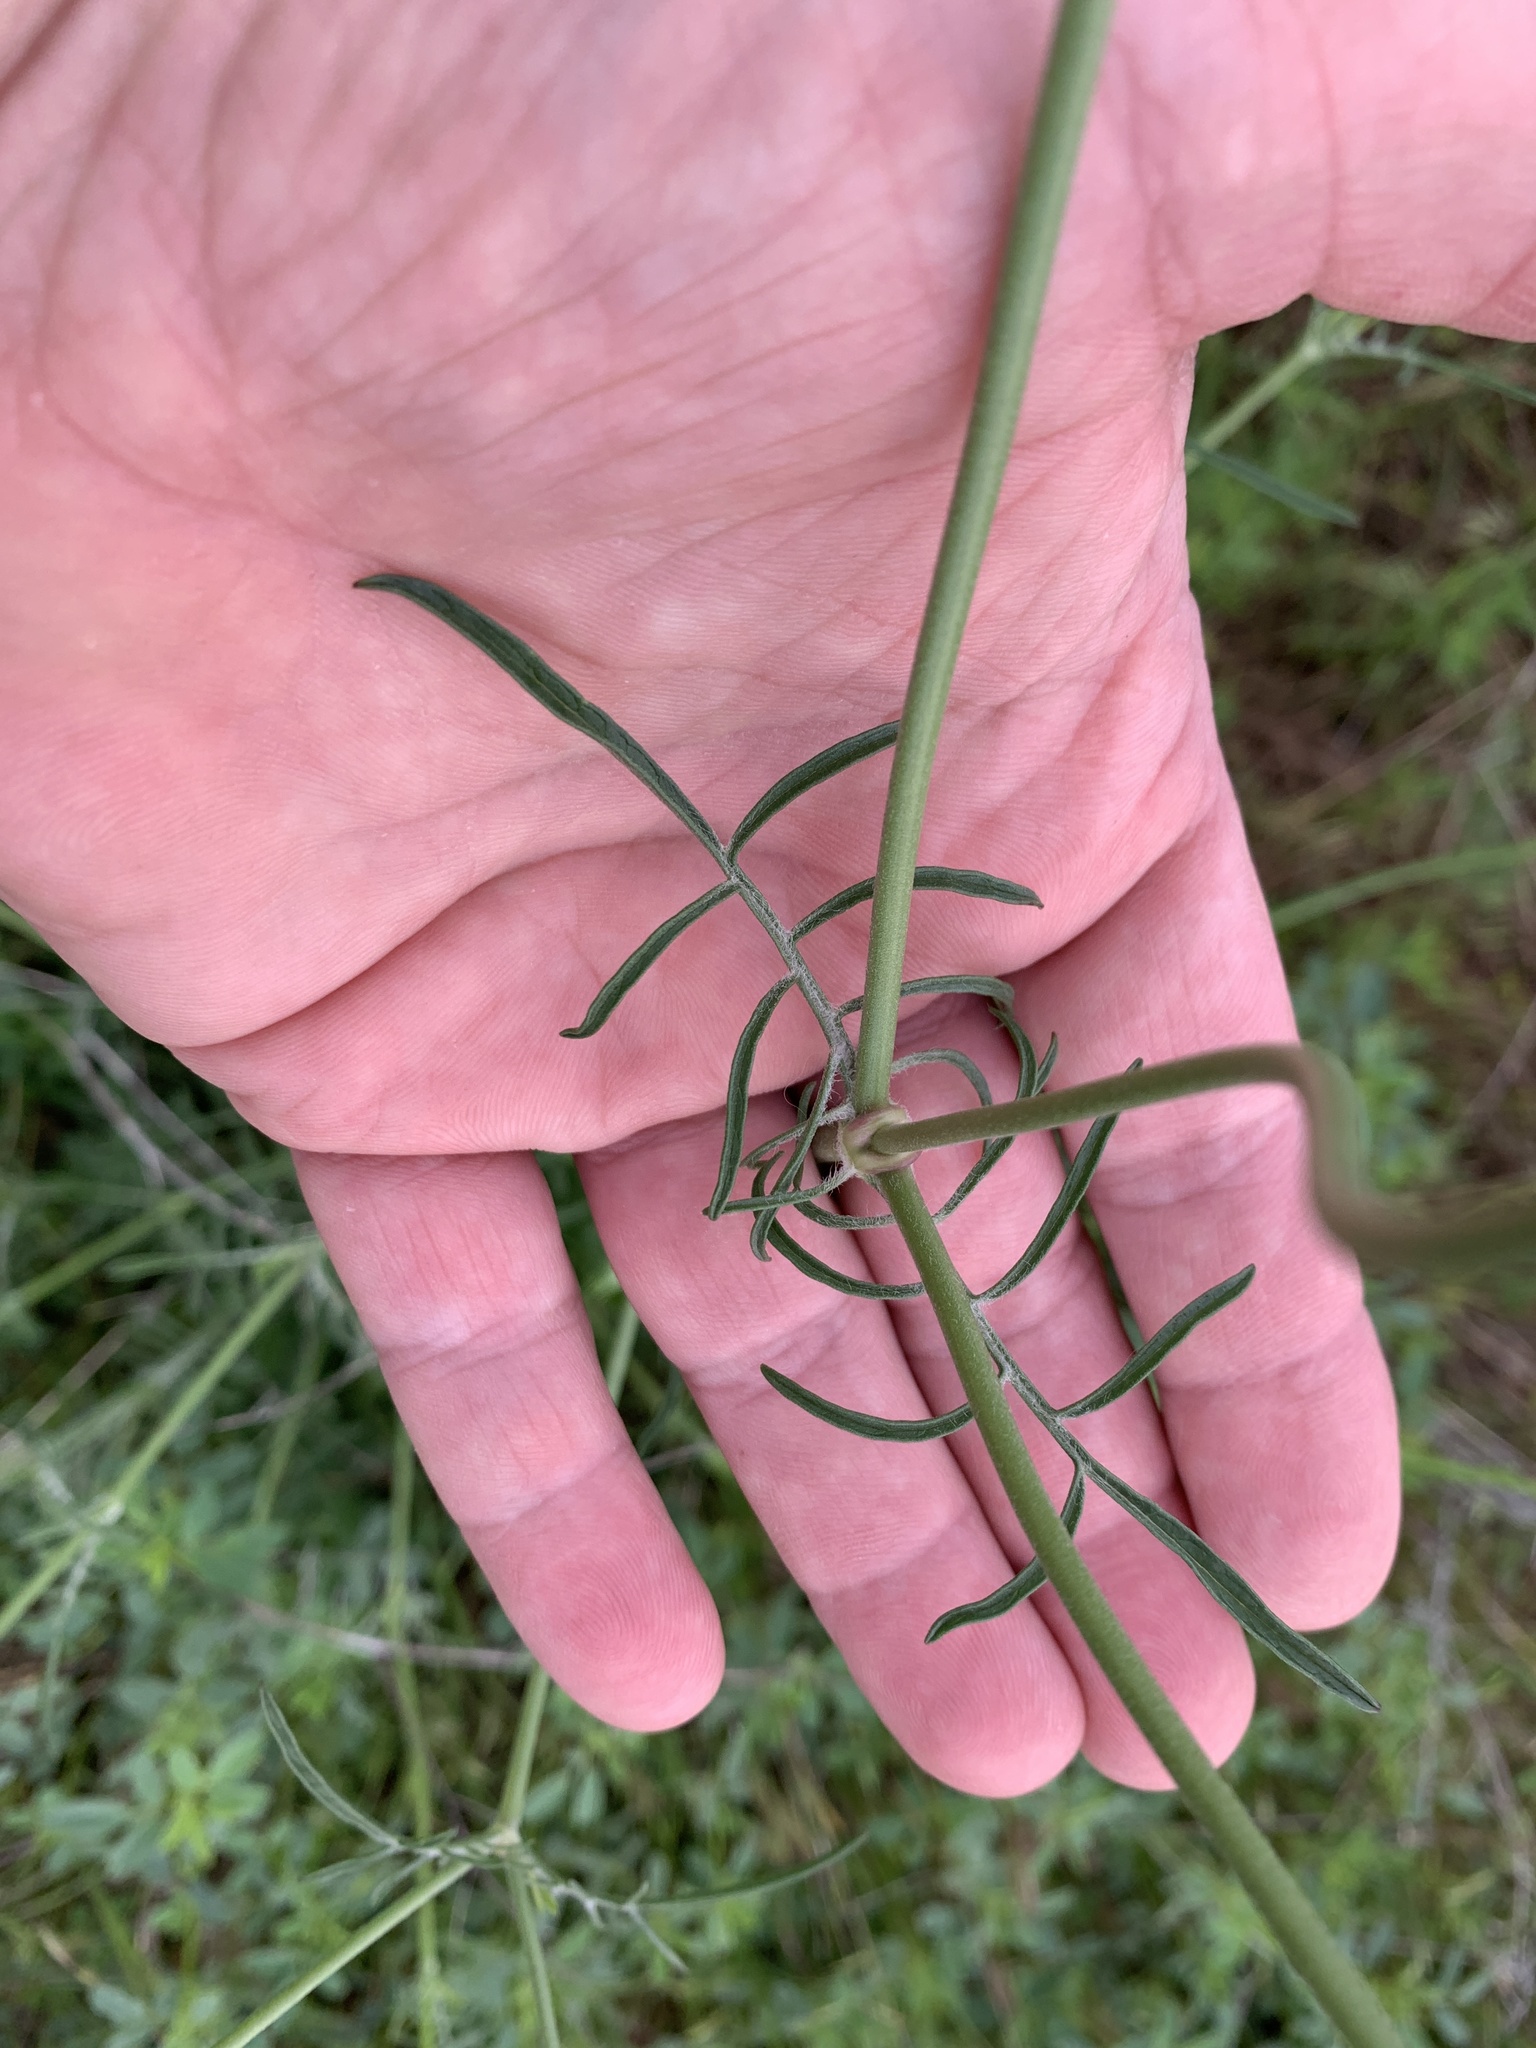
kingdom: Plantae
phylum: Tracheophyta
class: Magnoliopsida
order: Dipsacales
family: Caprifoliaceae
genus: Sixalix
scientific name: Sixalix atropurpurea
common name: Sweet scabious
